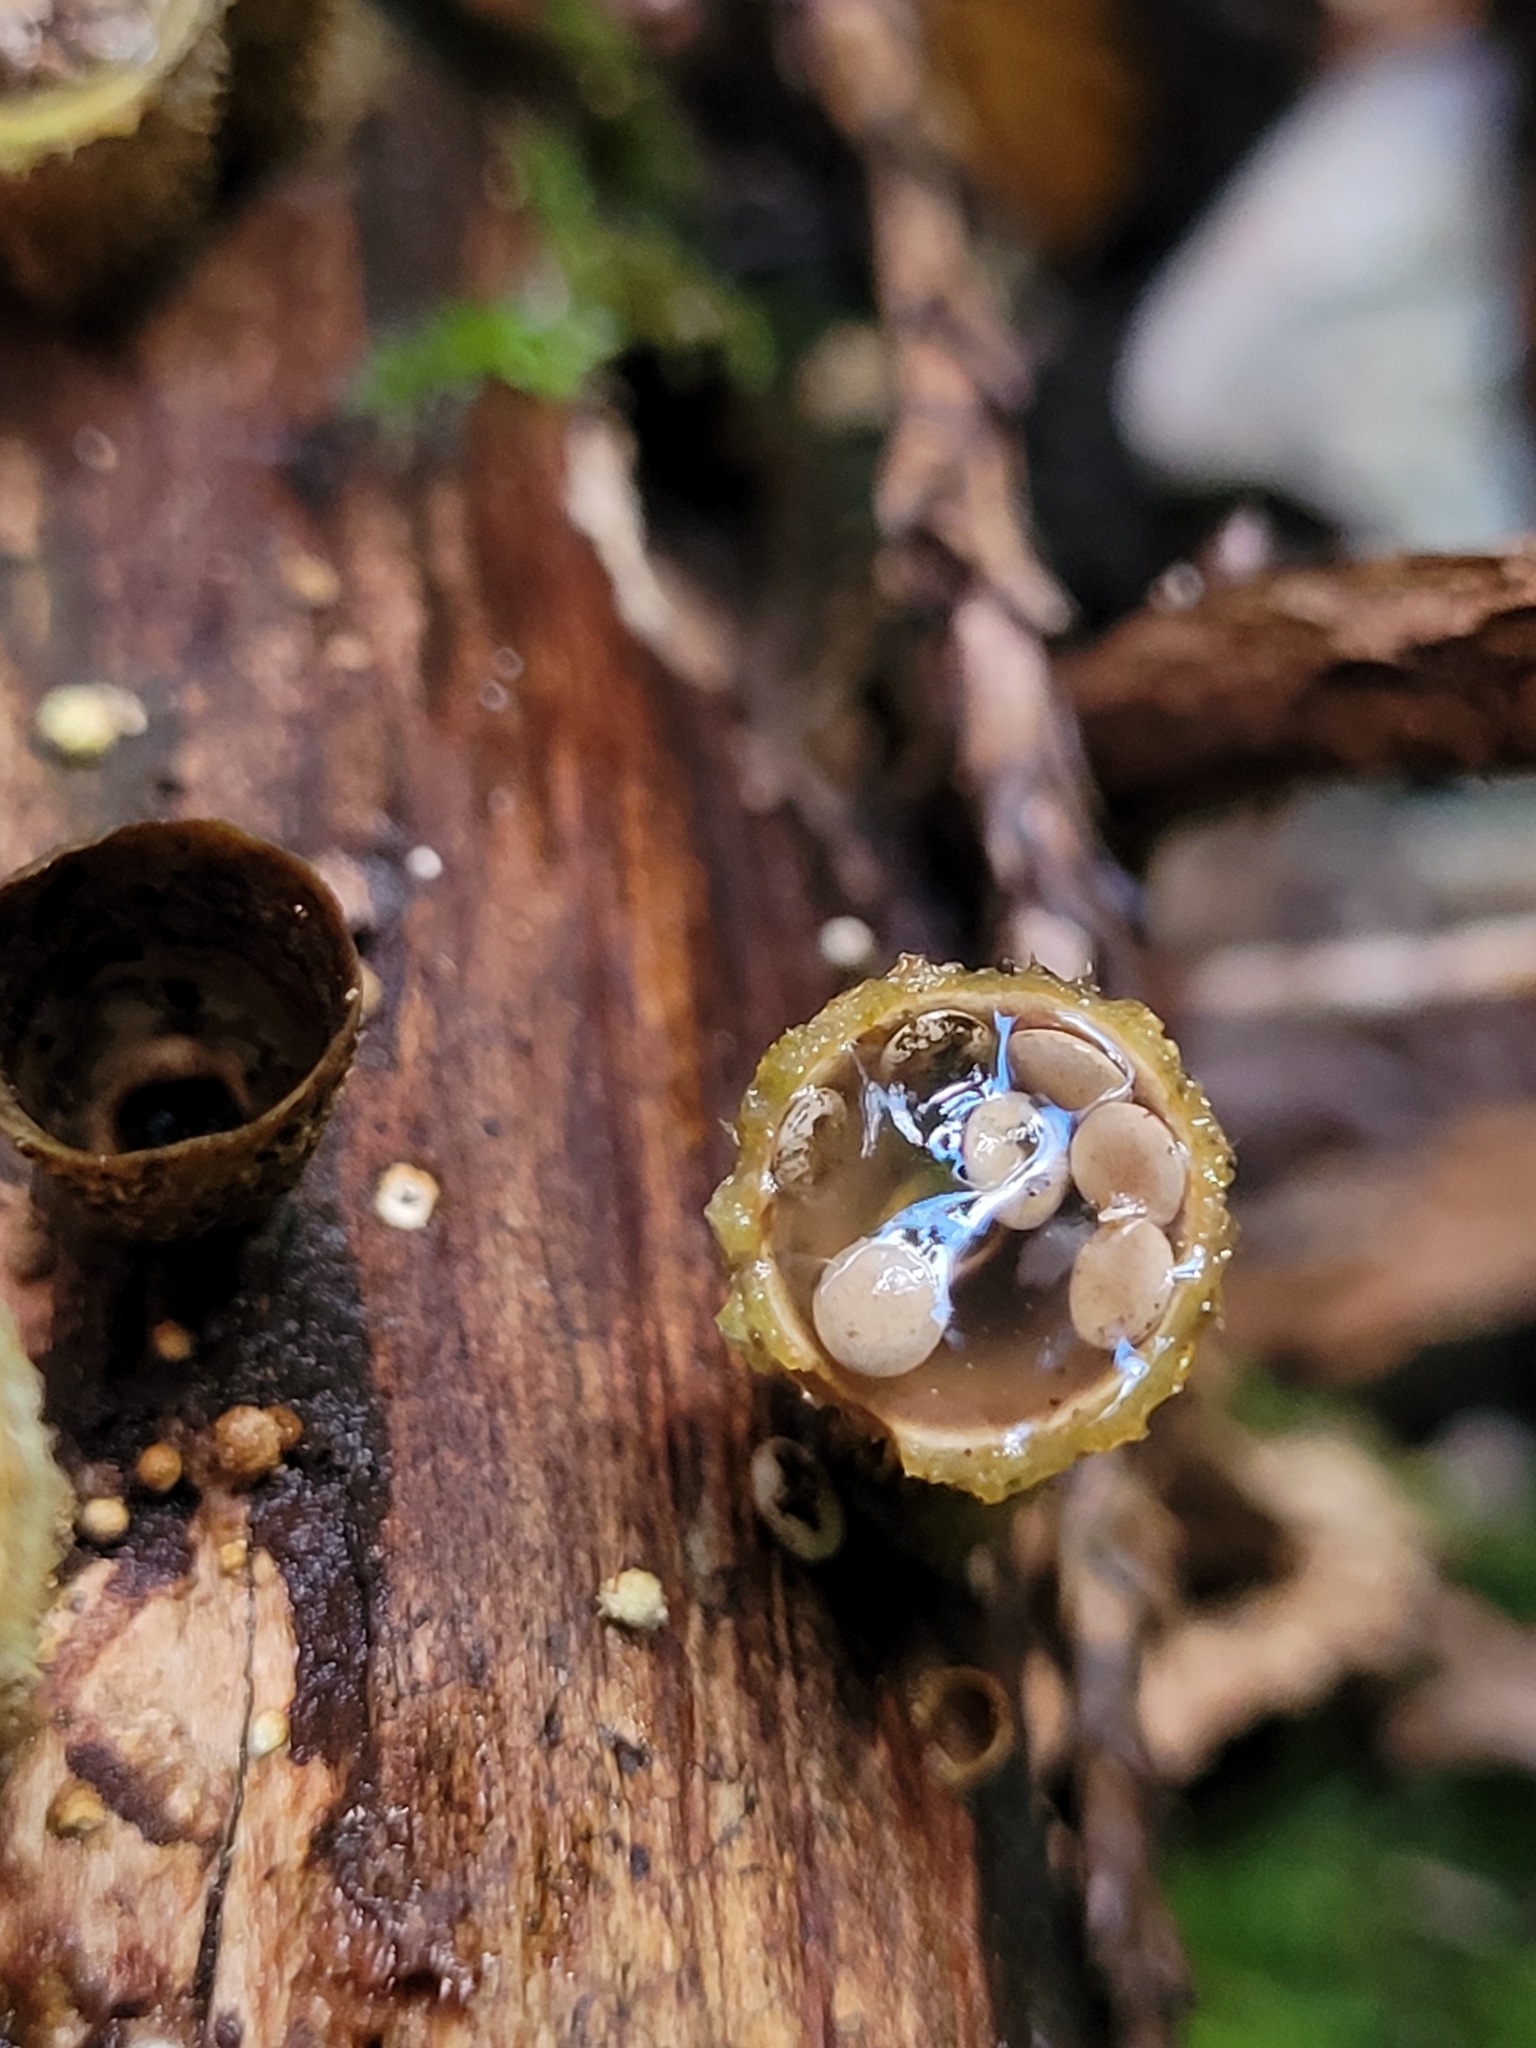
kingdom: Fungi
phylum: Basidiomycota
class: Agaricomycetes
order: Agaricales
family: Nidulariaceae
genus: Crucibulum
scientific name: Crucibulum laeve
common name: Common bird's nest
